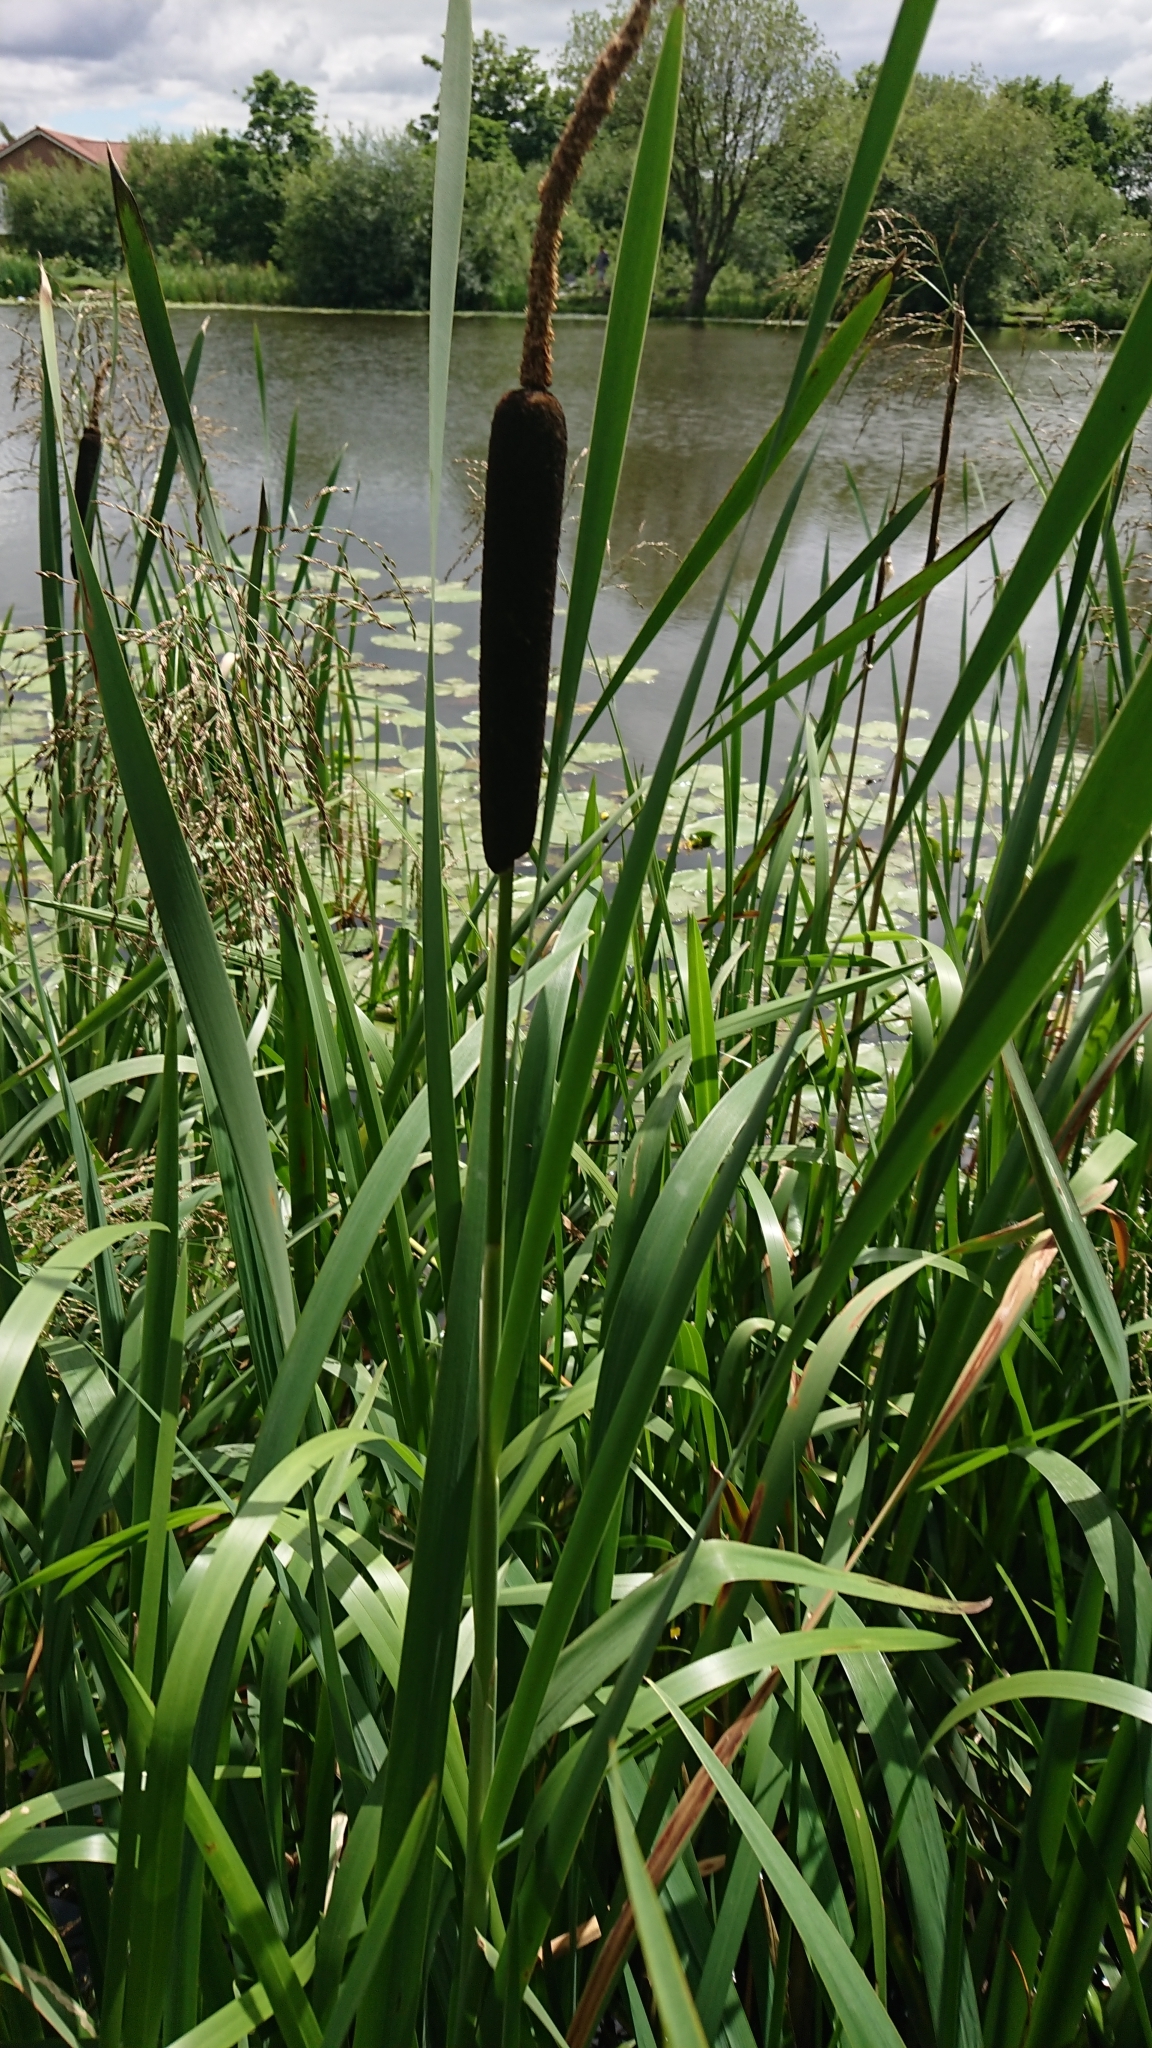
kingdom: Plantae
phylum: Tracheophyta
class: Liliopsida
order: Poales
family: Typhaceae
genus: Typha
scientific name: Typha latifolia
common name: Broadleaf cattail
